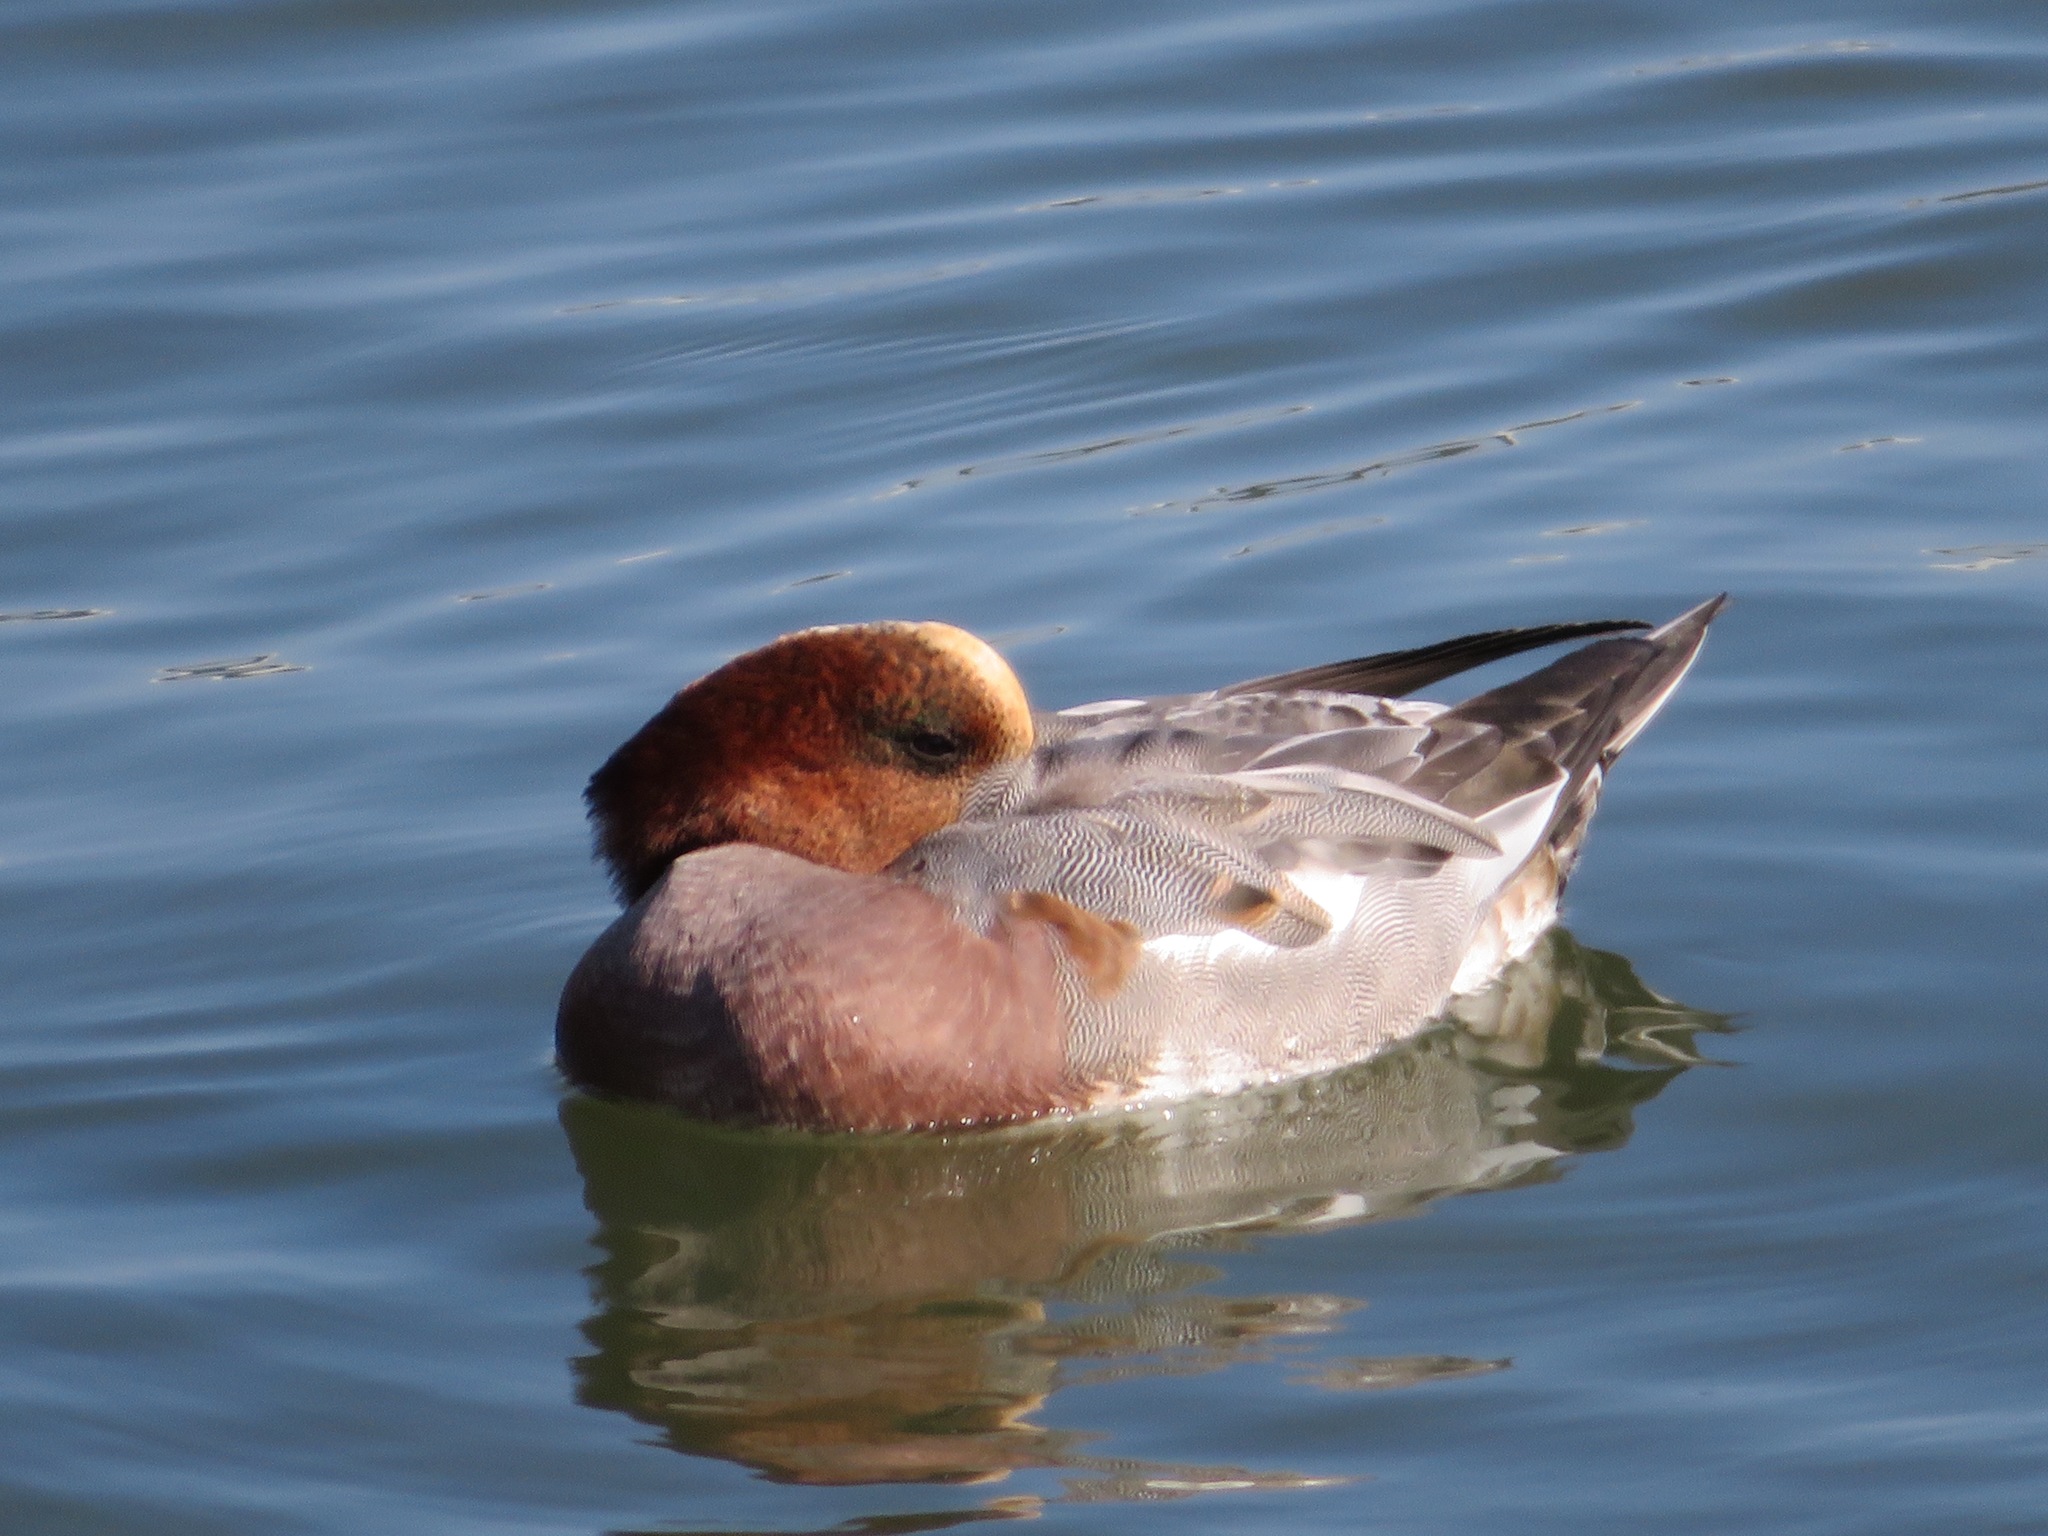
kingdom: Animalia
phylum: Chordata
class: Aves
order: Anseriformes
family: Anatidae
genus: Mareca
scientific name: Mareca penelope
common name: Eurasian wigeon
